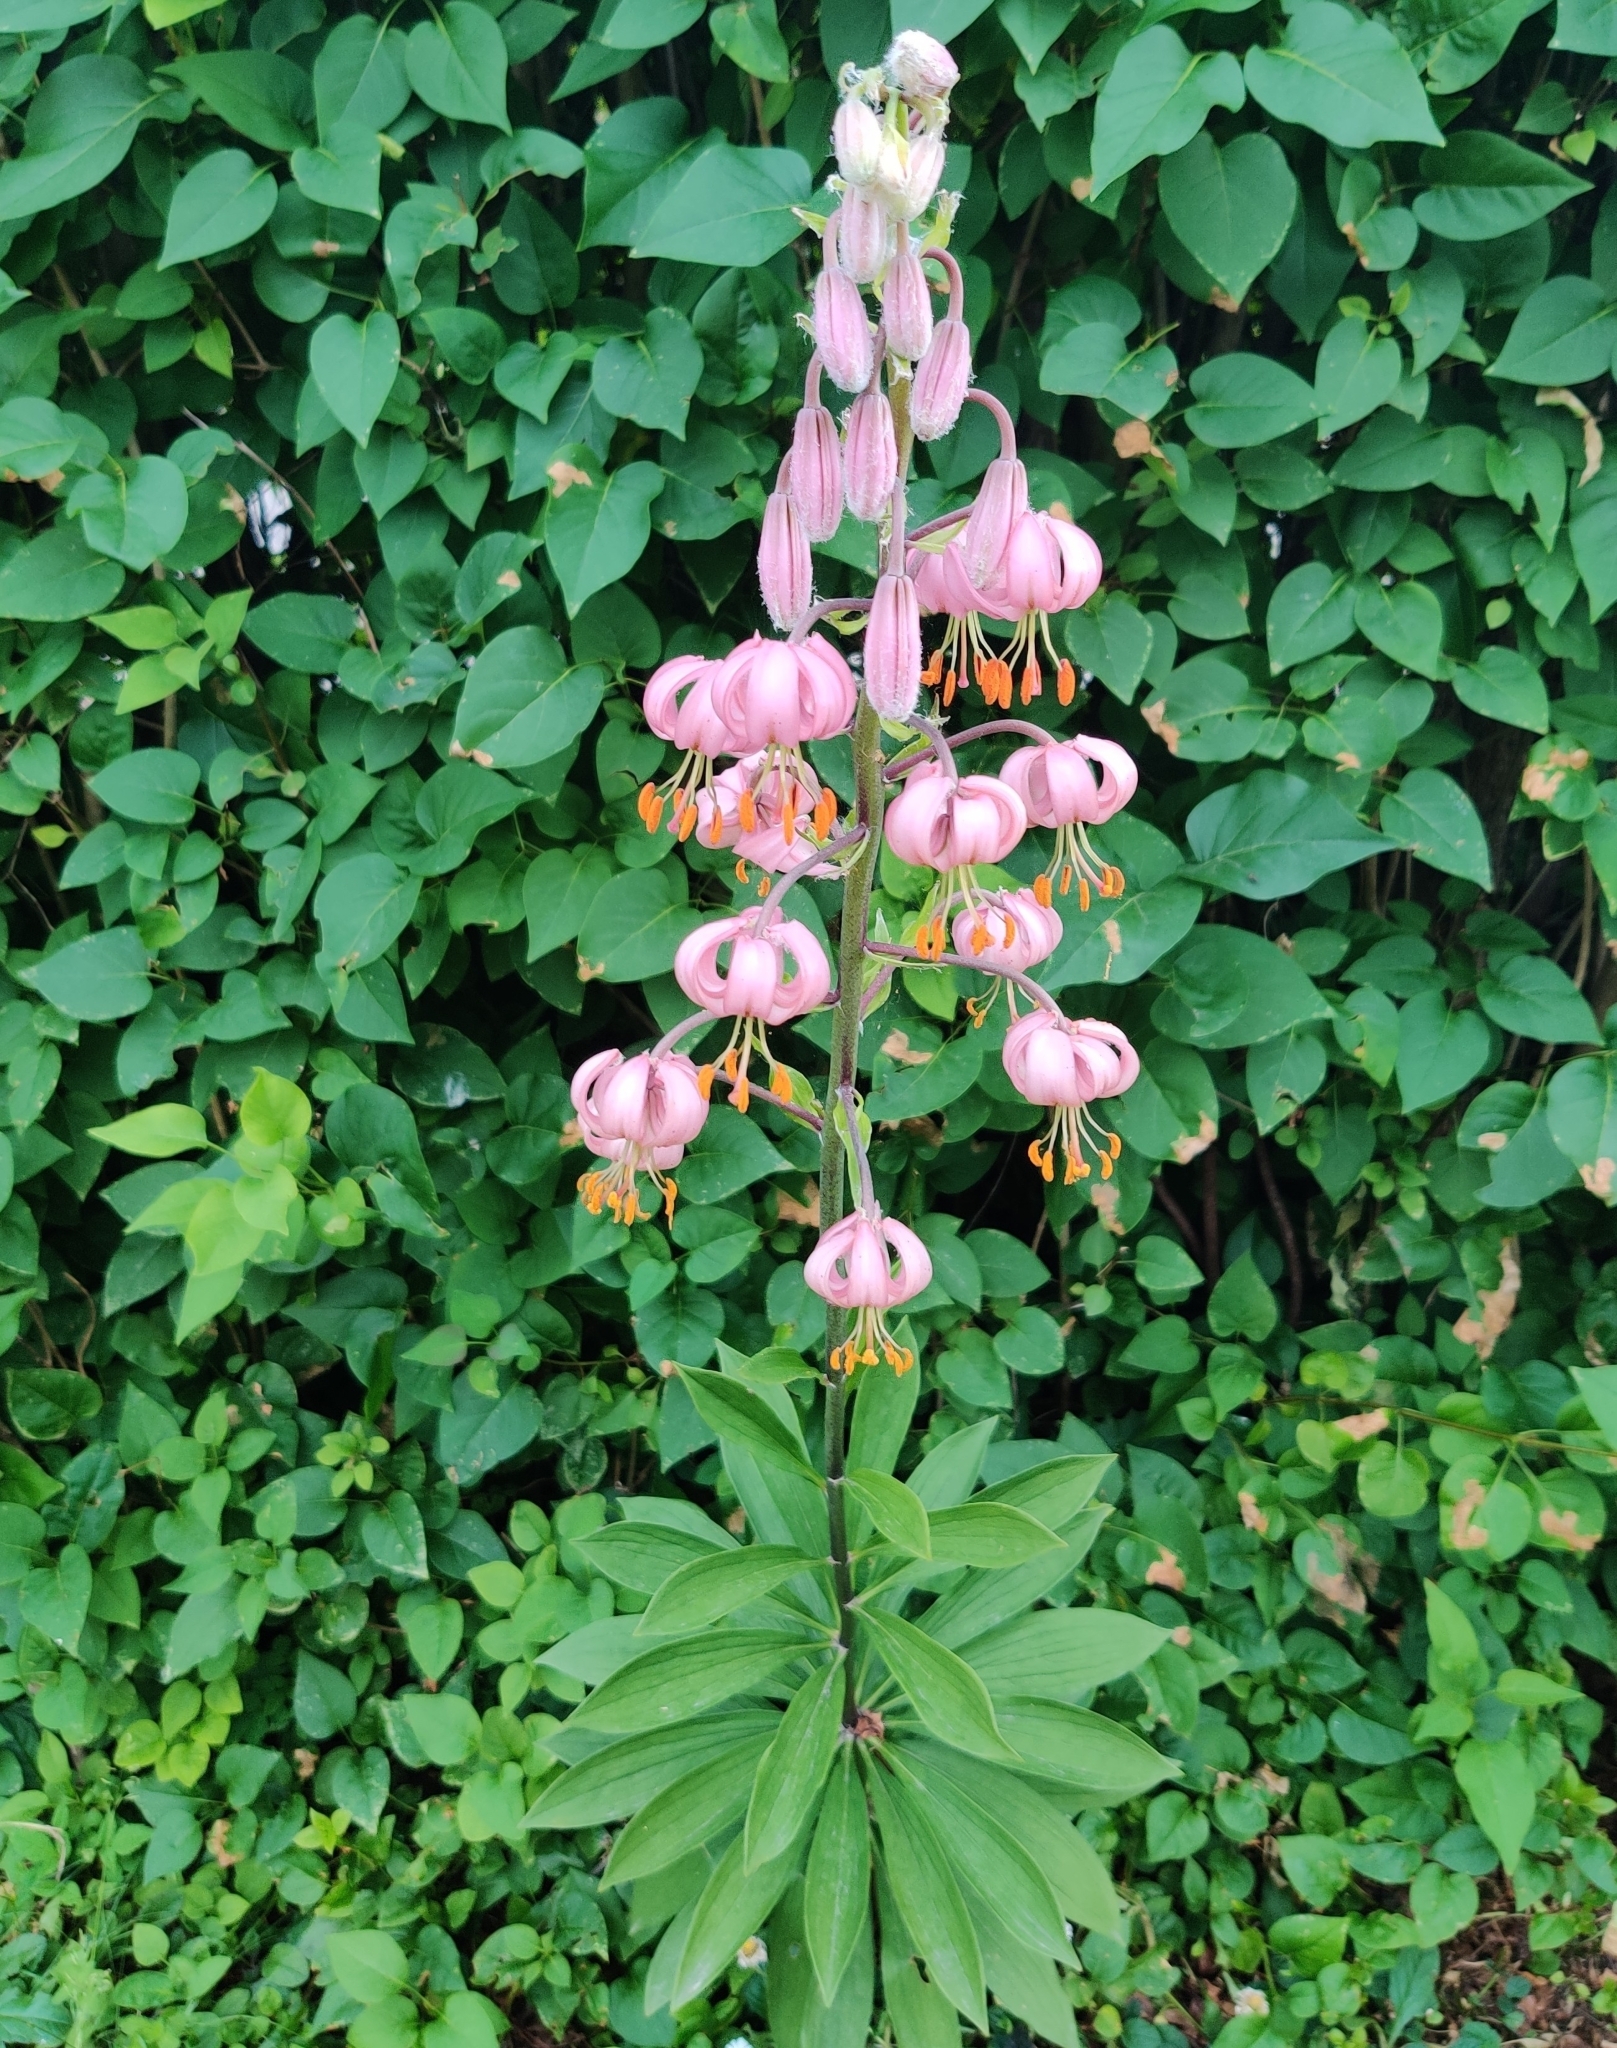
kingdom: Plantae
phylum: Tracheophyta
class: Liliopsida
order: Liliales
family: Liliaceae
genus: Lilium
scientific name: Lilium martagon
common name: Martagon lily
